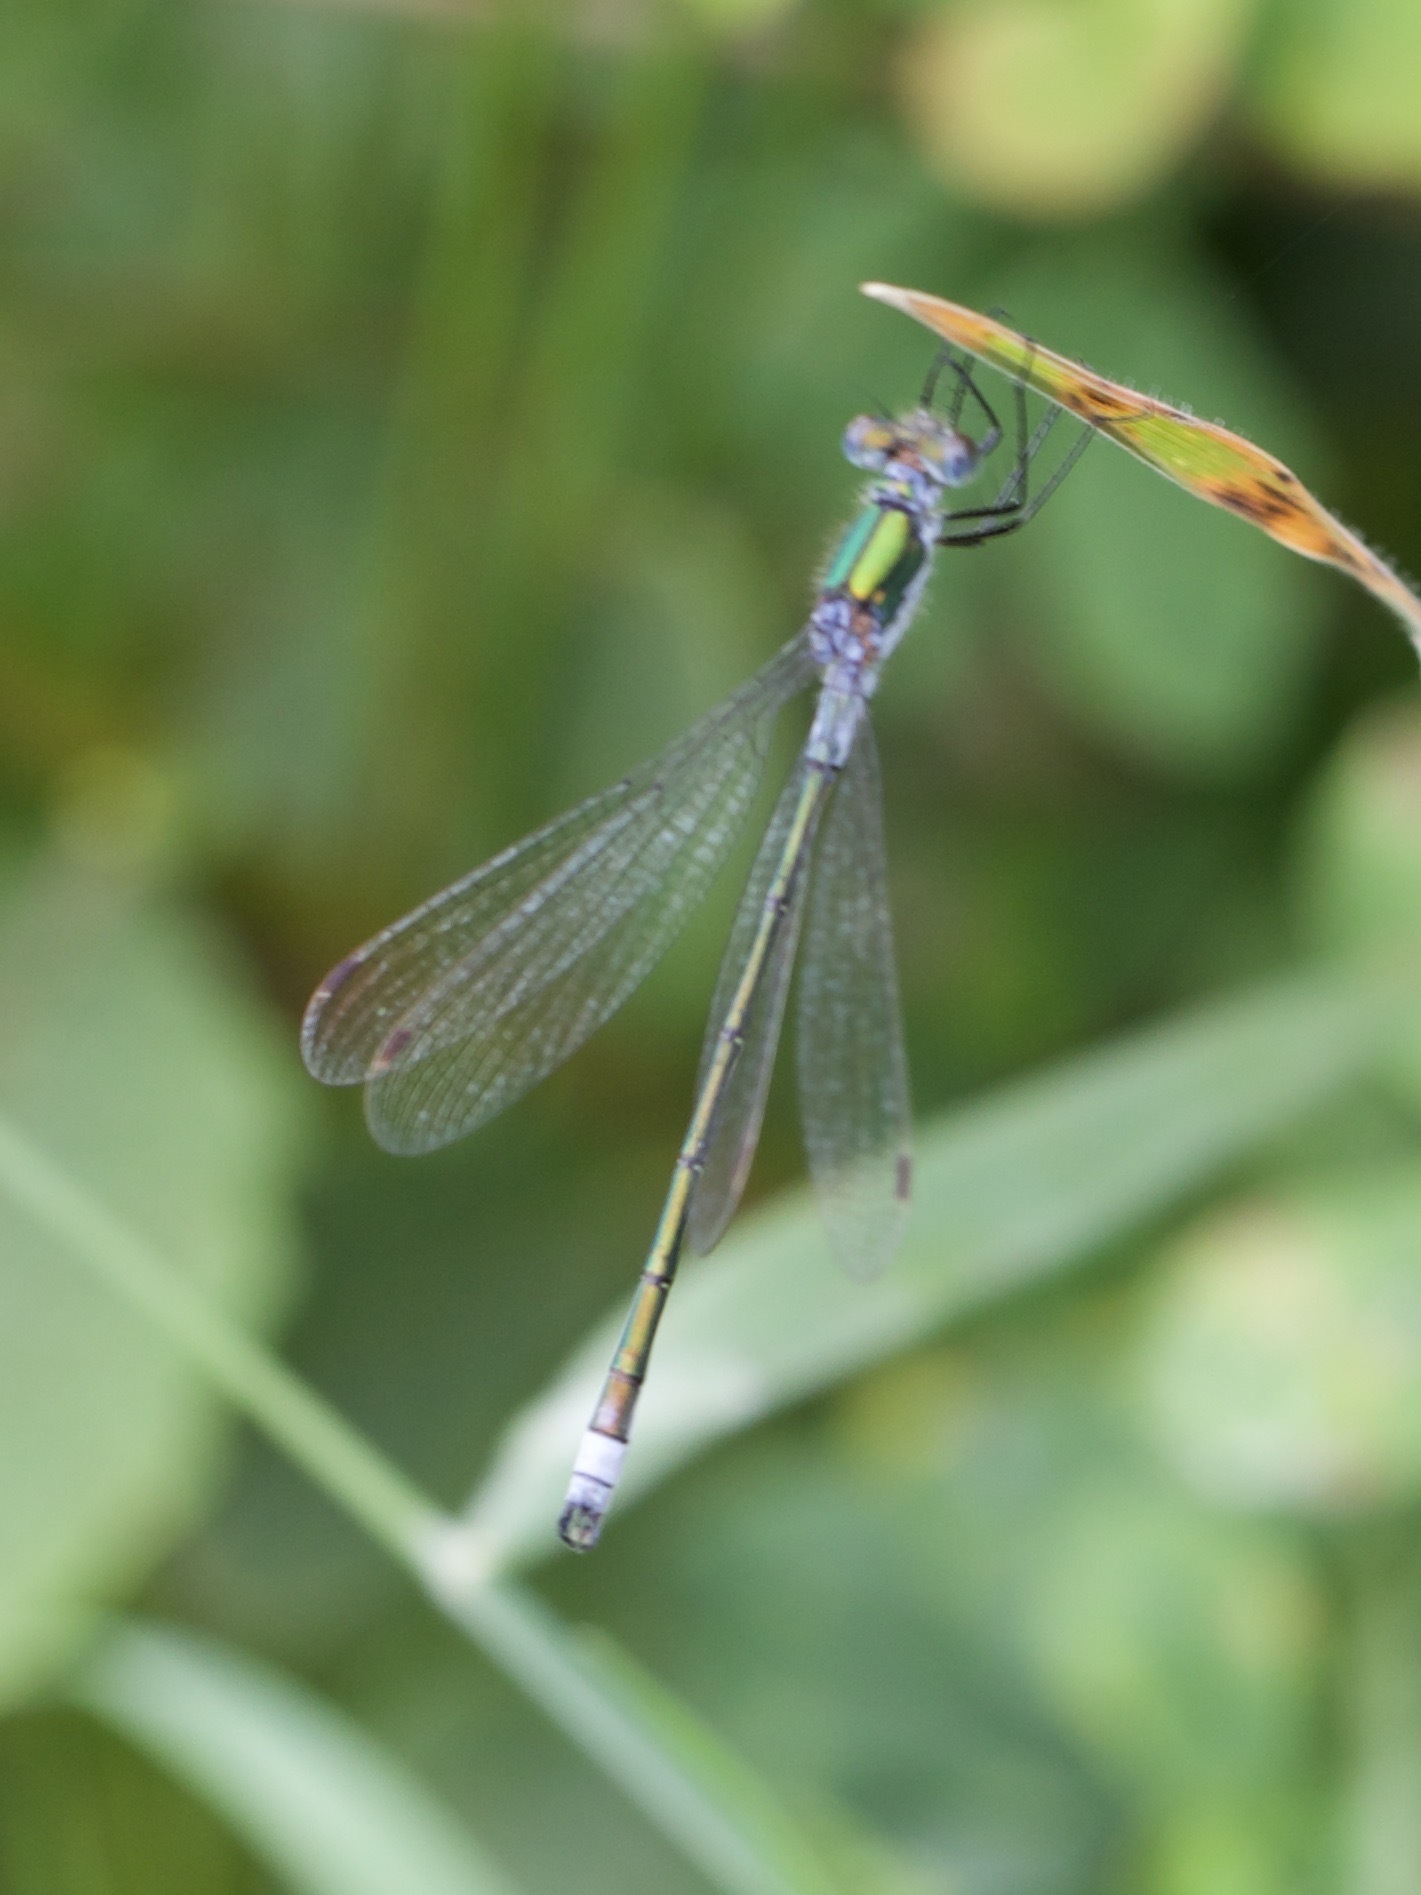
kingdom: Animalia
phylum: Arthropoda
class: Insecta
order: Odonata
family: Lestidae
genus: Lestes
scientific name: Lestes sponsa
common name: Common spreadwing
